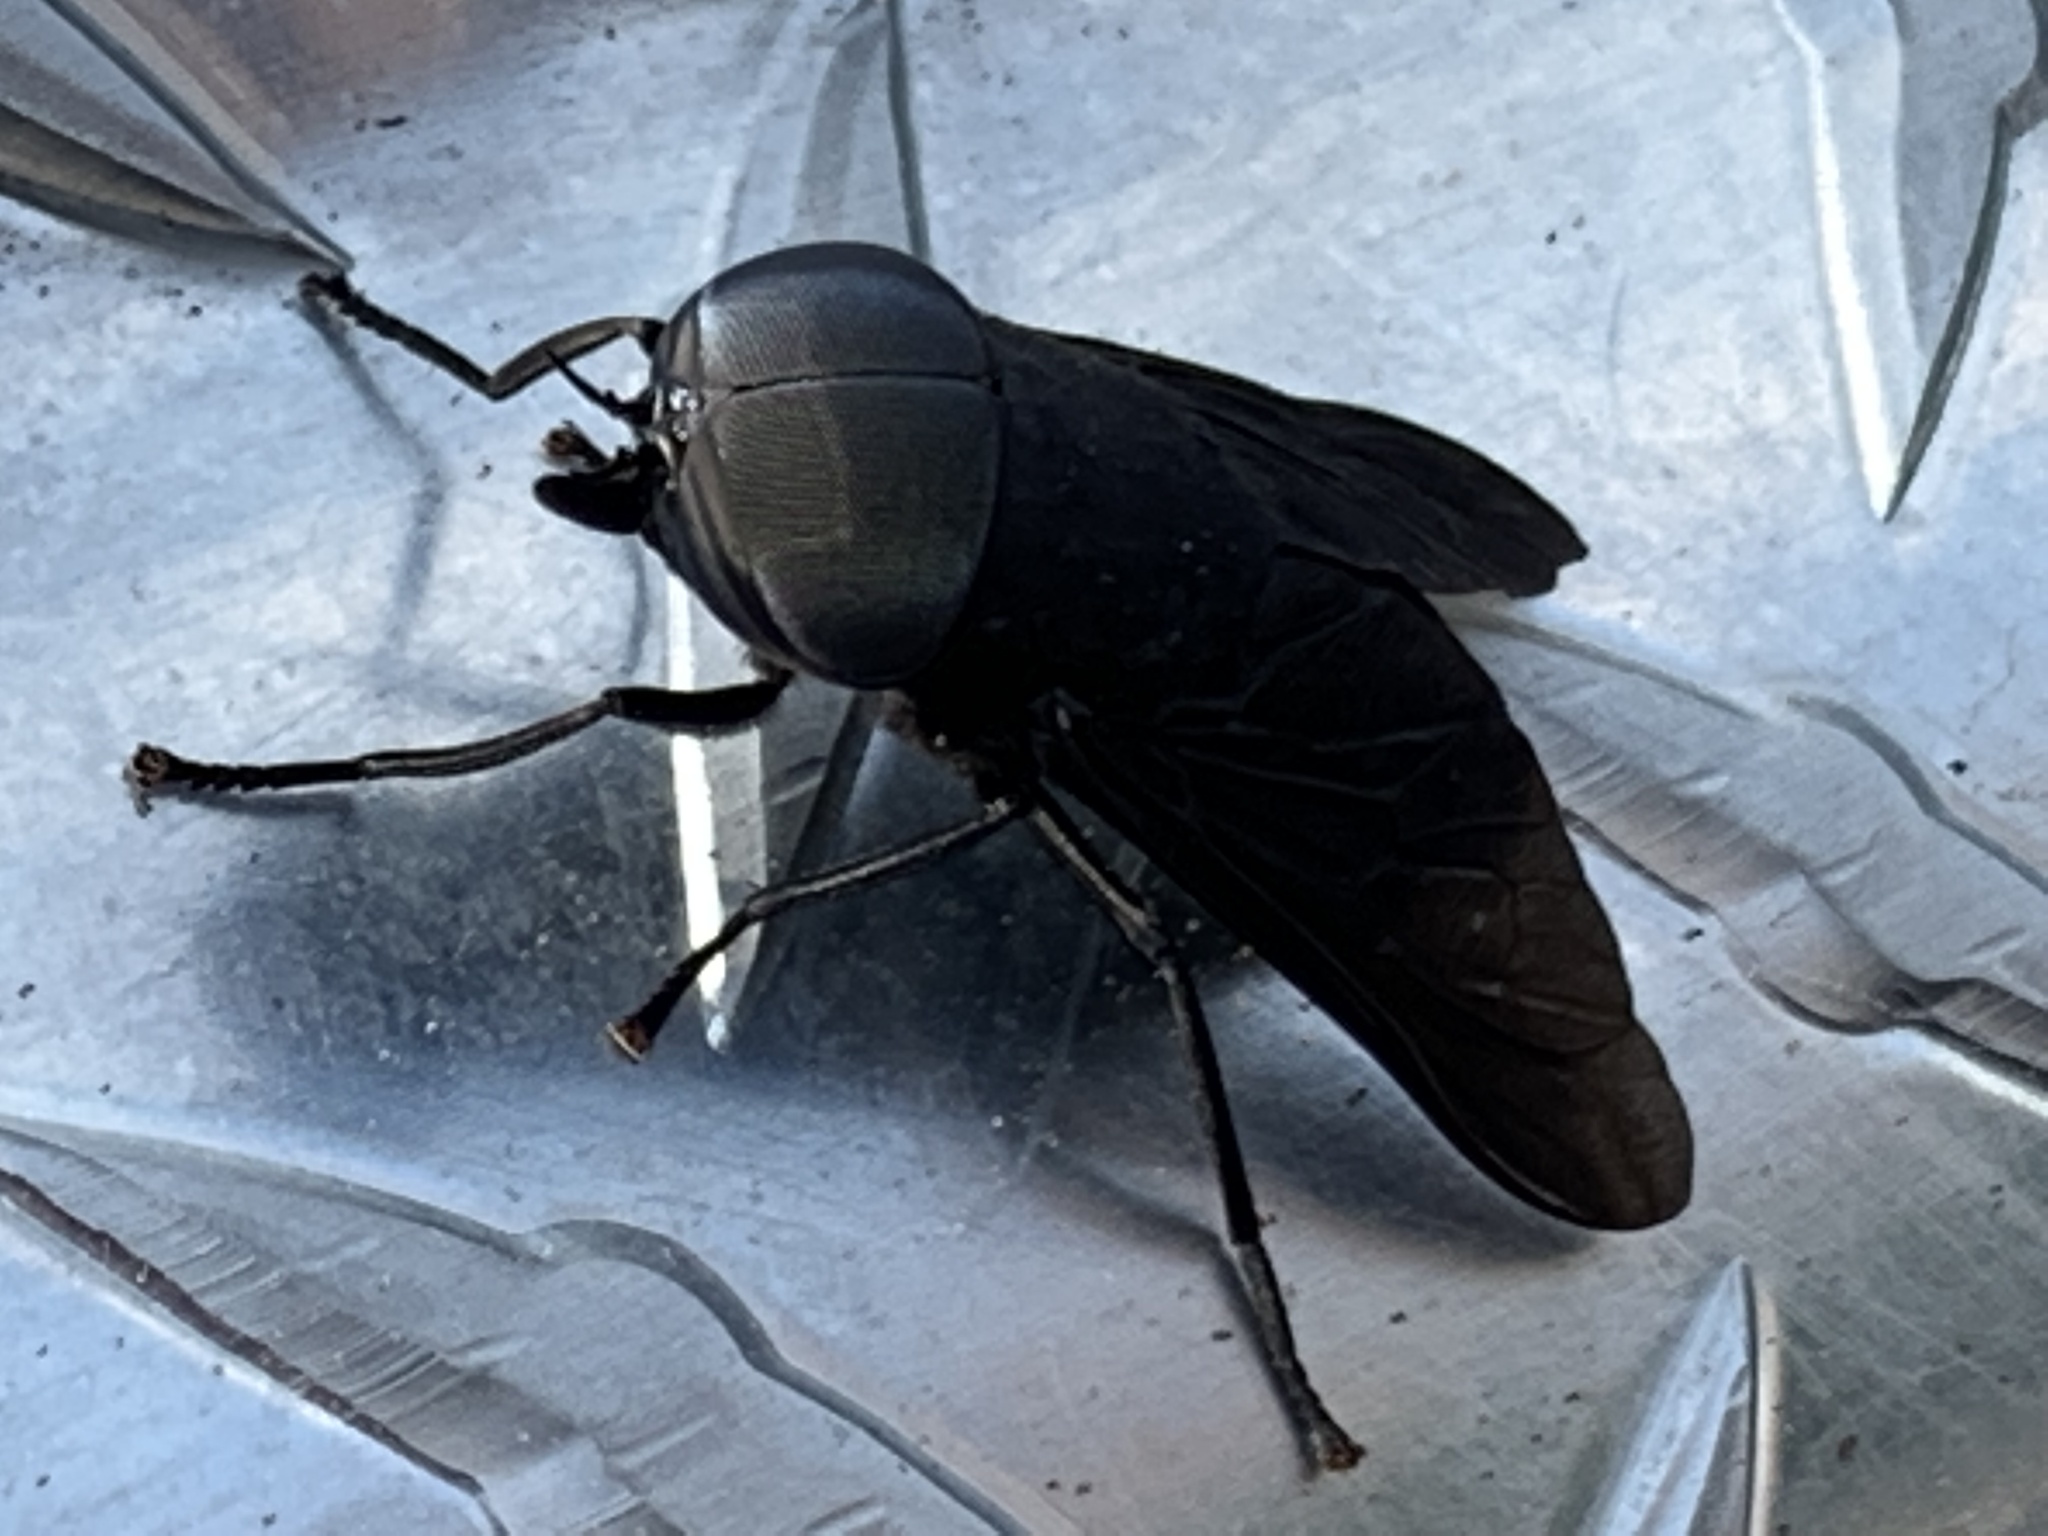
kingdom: Animalia
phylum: Arthropoda
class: Insecta
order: Diptera
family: Tabanidae
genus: Tabanus
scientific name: Tabanus atratus
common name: Black horse fly
